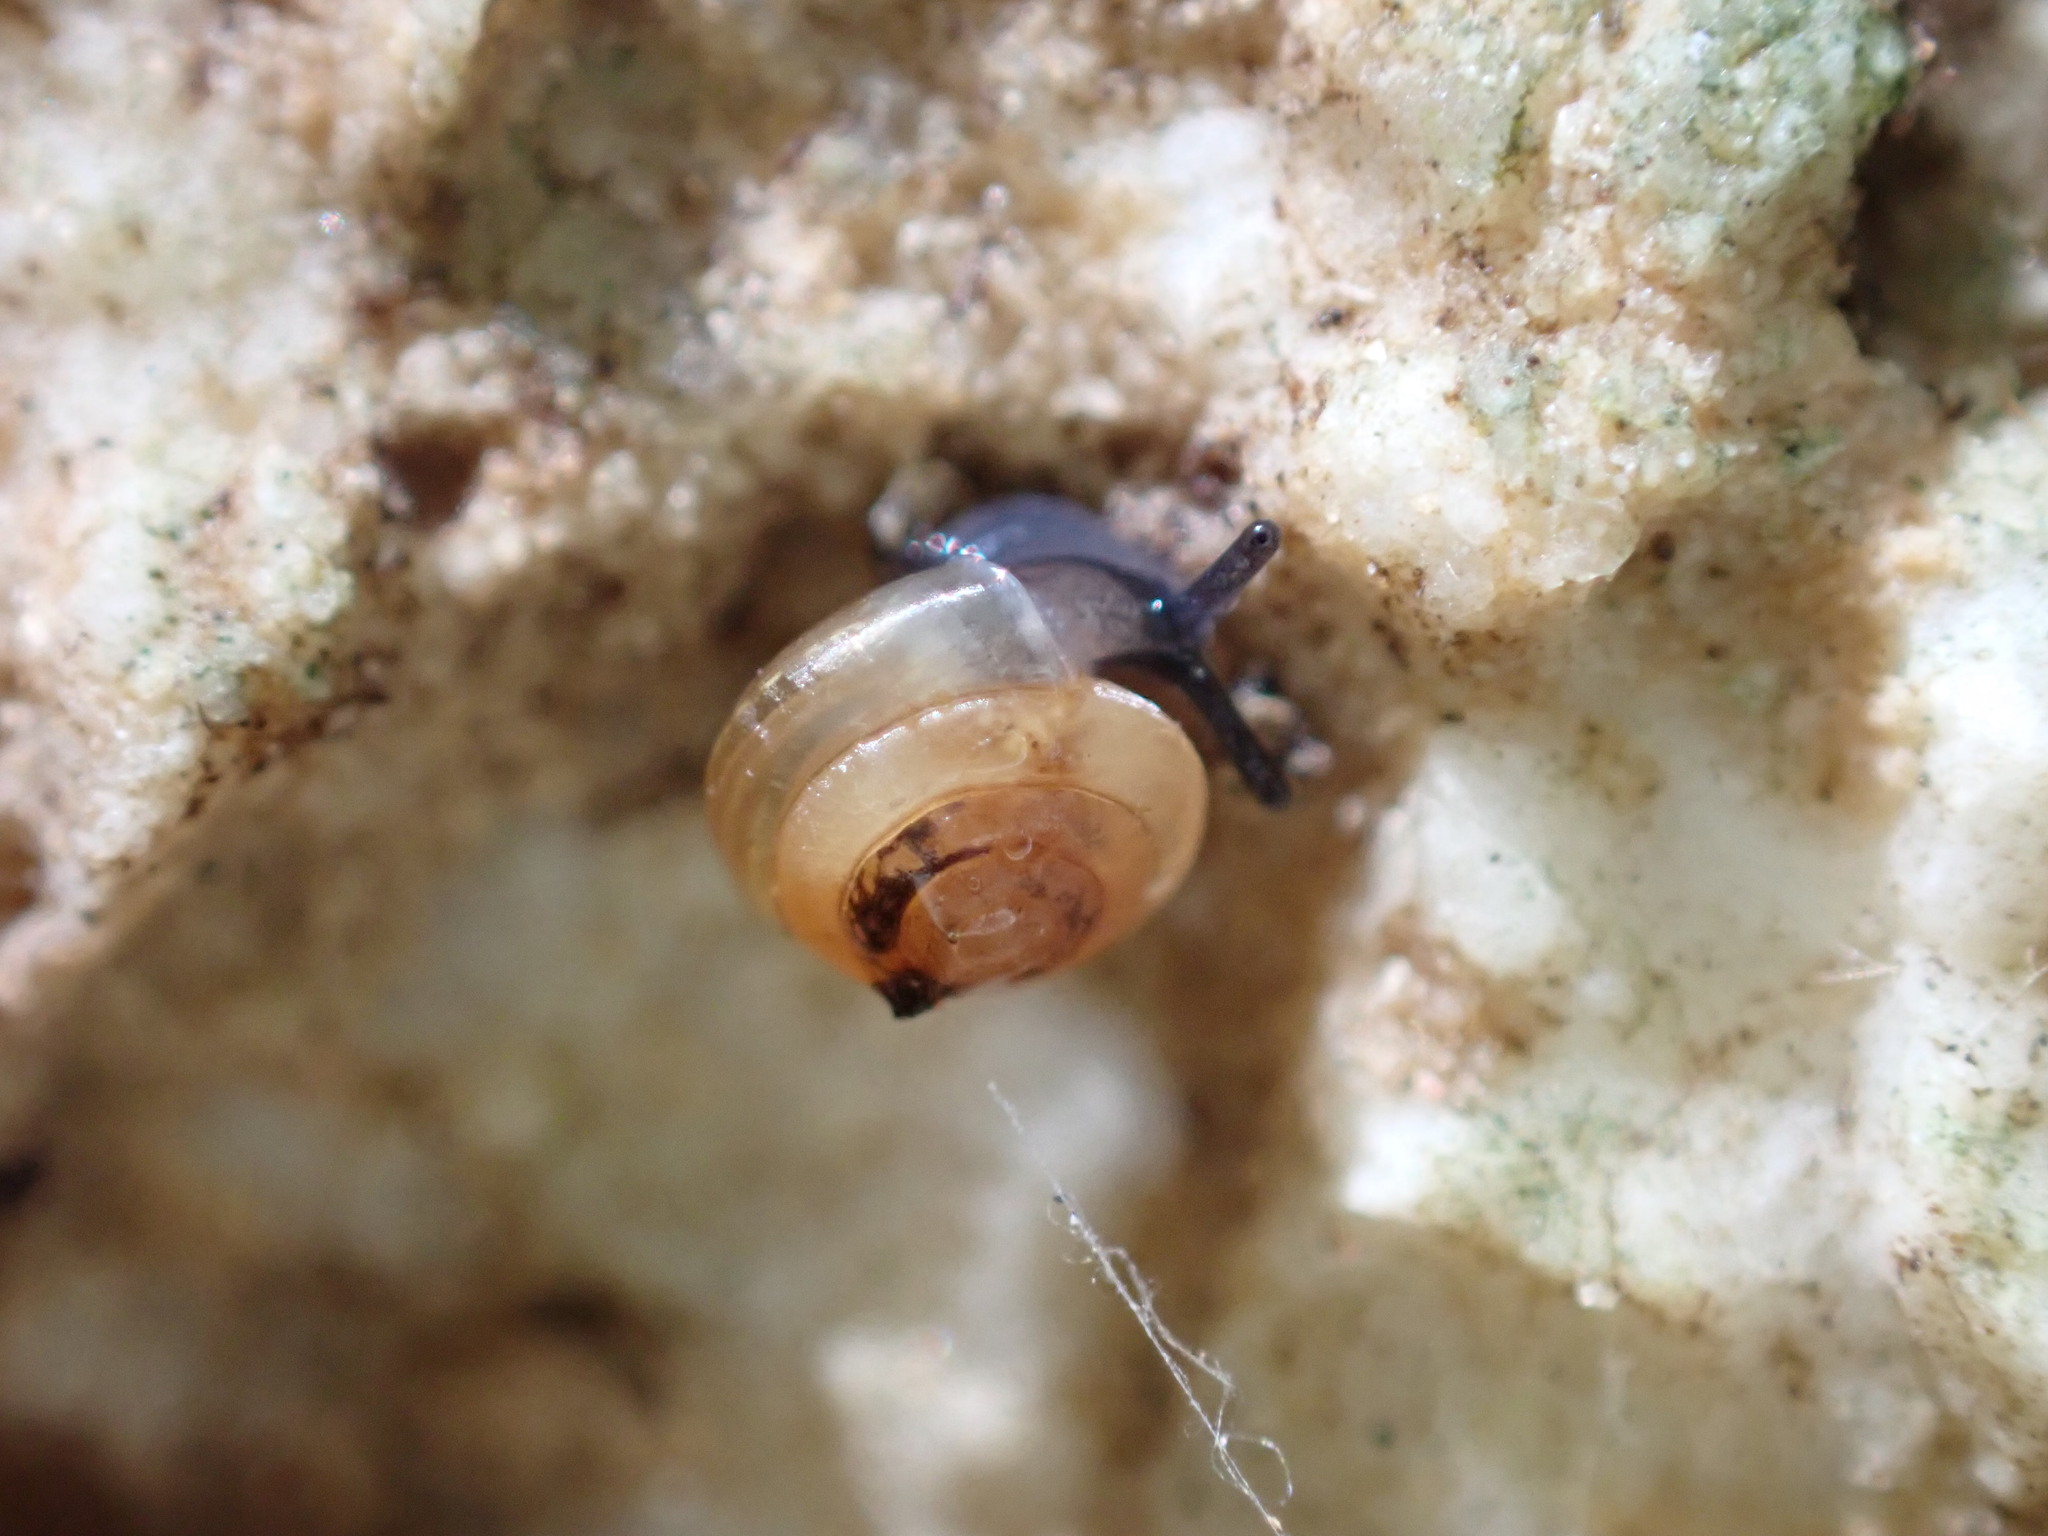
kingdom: Animalia
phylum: Mollusca
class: Gastropoda
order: Stylommatophora
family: Euconulidae
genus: Euconulus
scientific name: Euconulus fulvus
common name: Tawny glass snail
